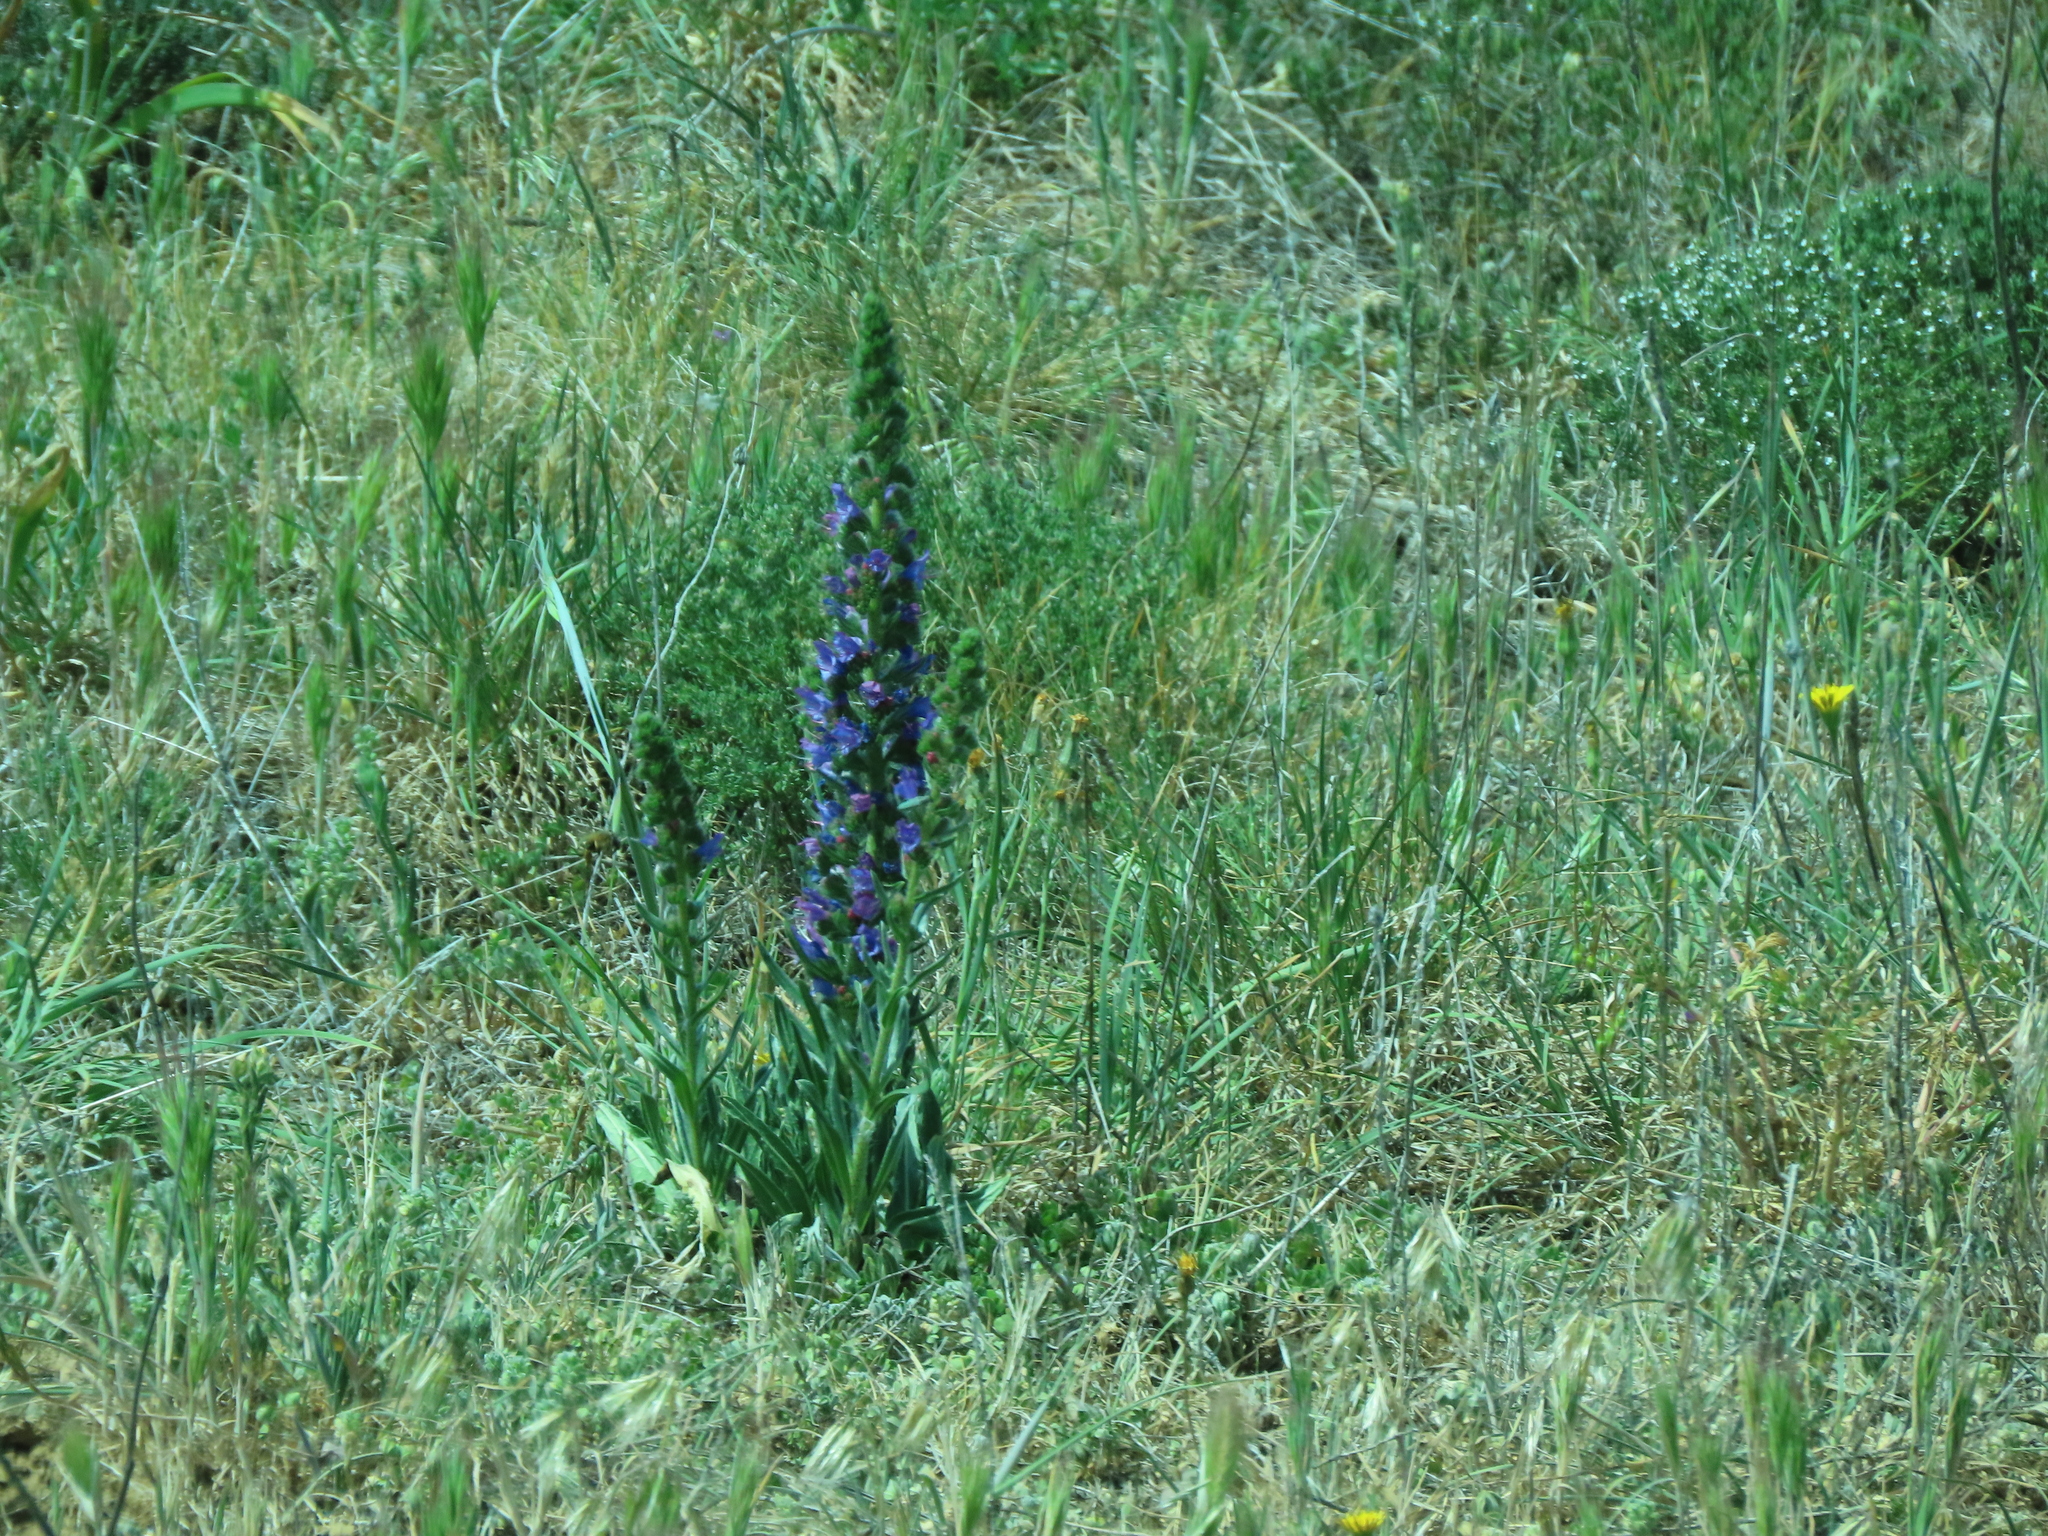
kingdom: Plantae
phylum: Tracheophyta
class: Magnoliopsida
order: Boraginales
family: Boraginaceae
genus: Echium
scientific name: Echium vulgare
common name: Common viper's bugloss
